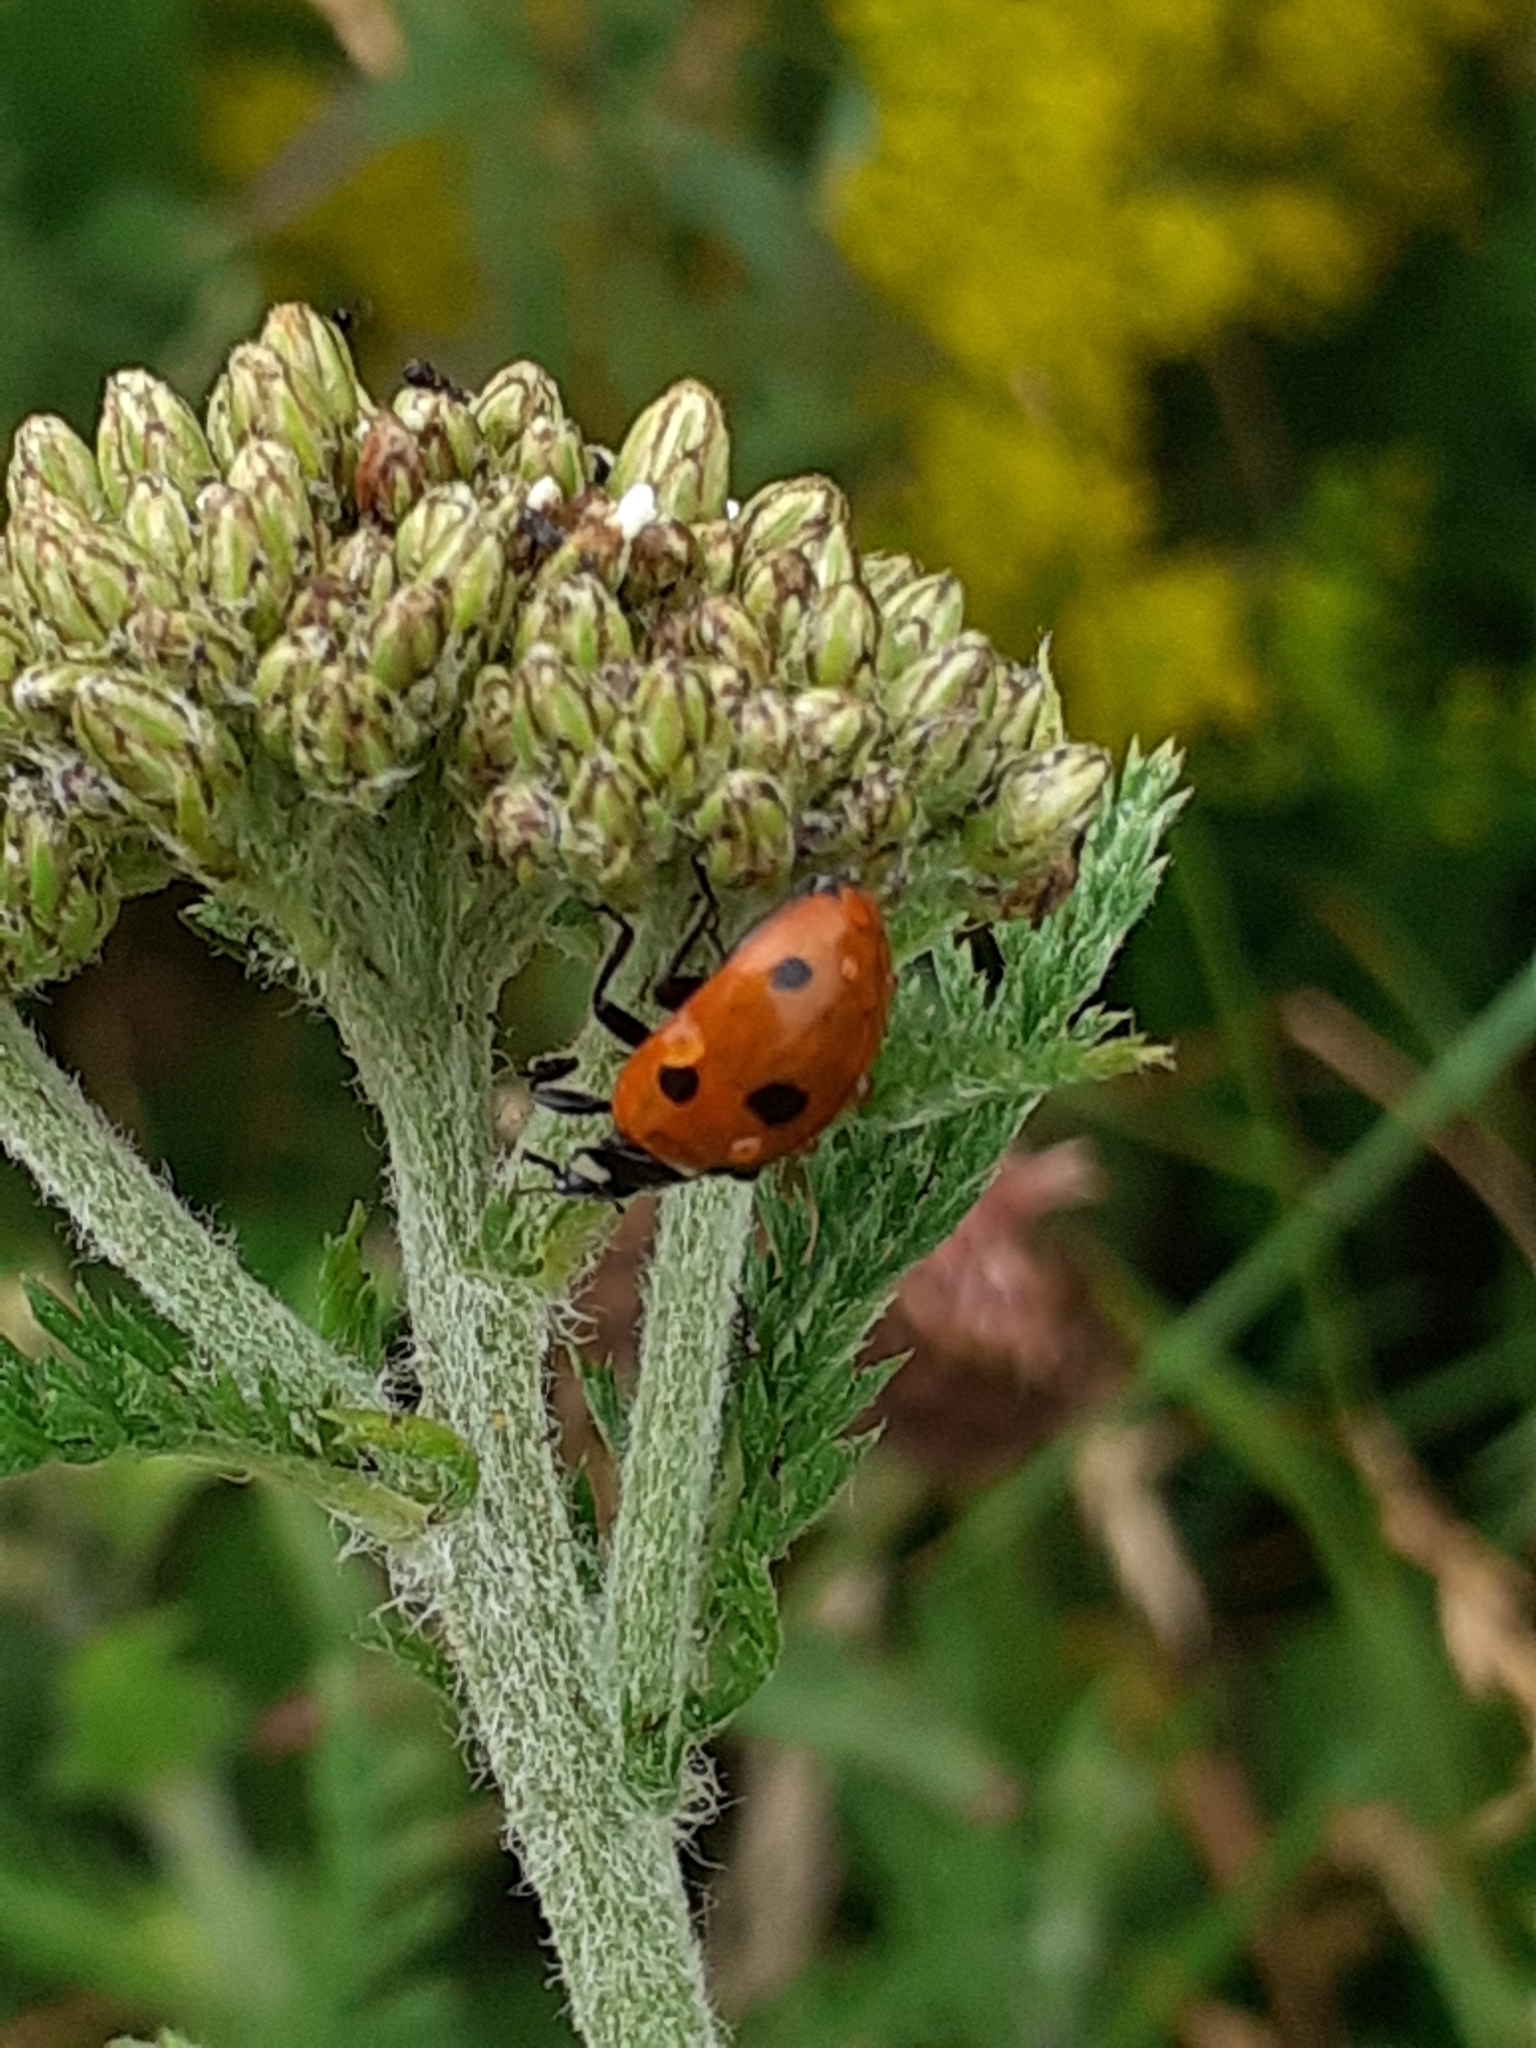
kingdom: Animalia
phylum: Arthropoda
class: Insecta
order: Coleoptera
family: Coccinellidae
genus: Coccinella
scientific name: Coccinella septempunctata
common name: Sevenspotted lady beetle
